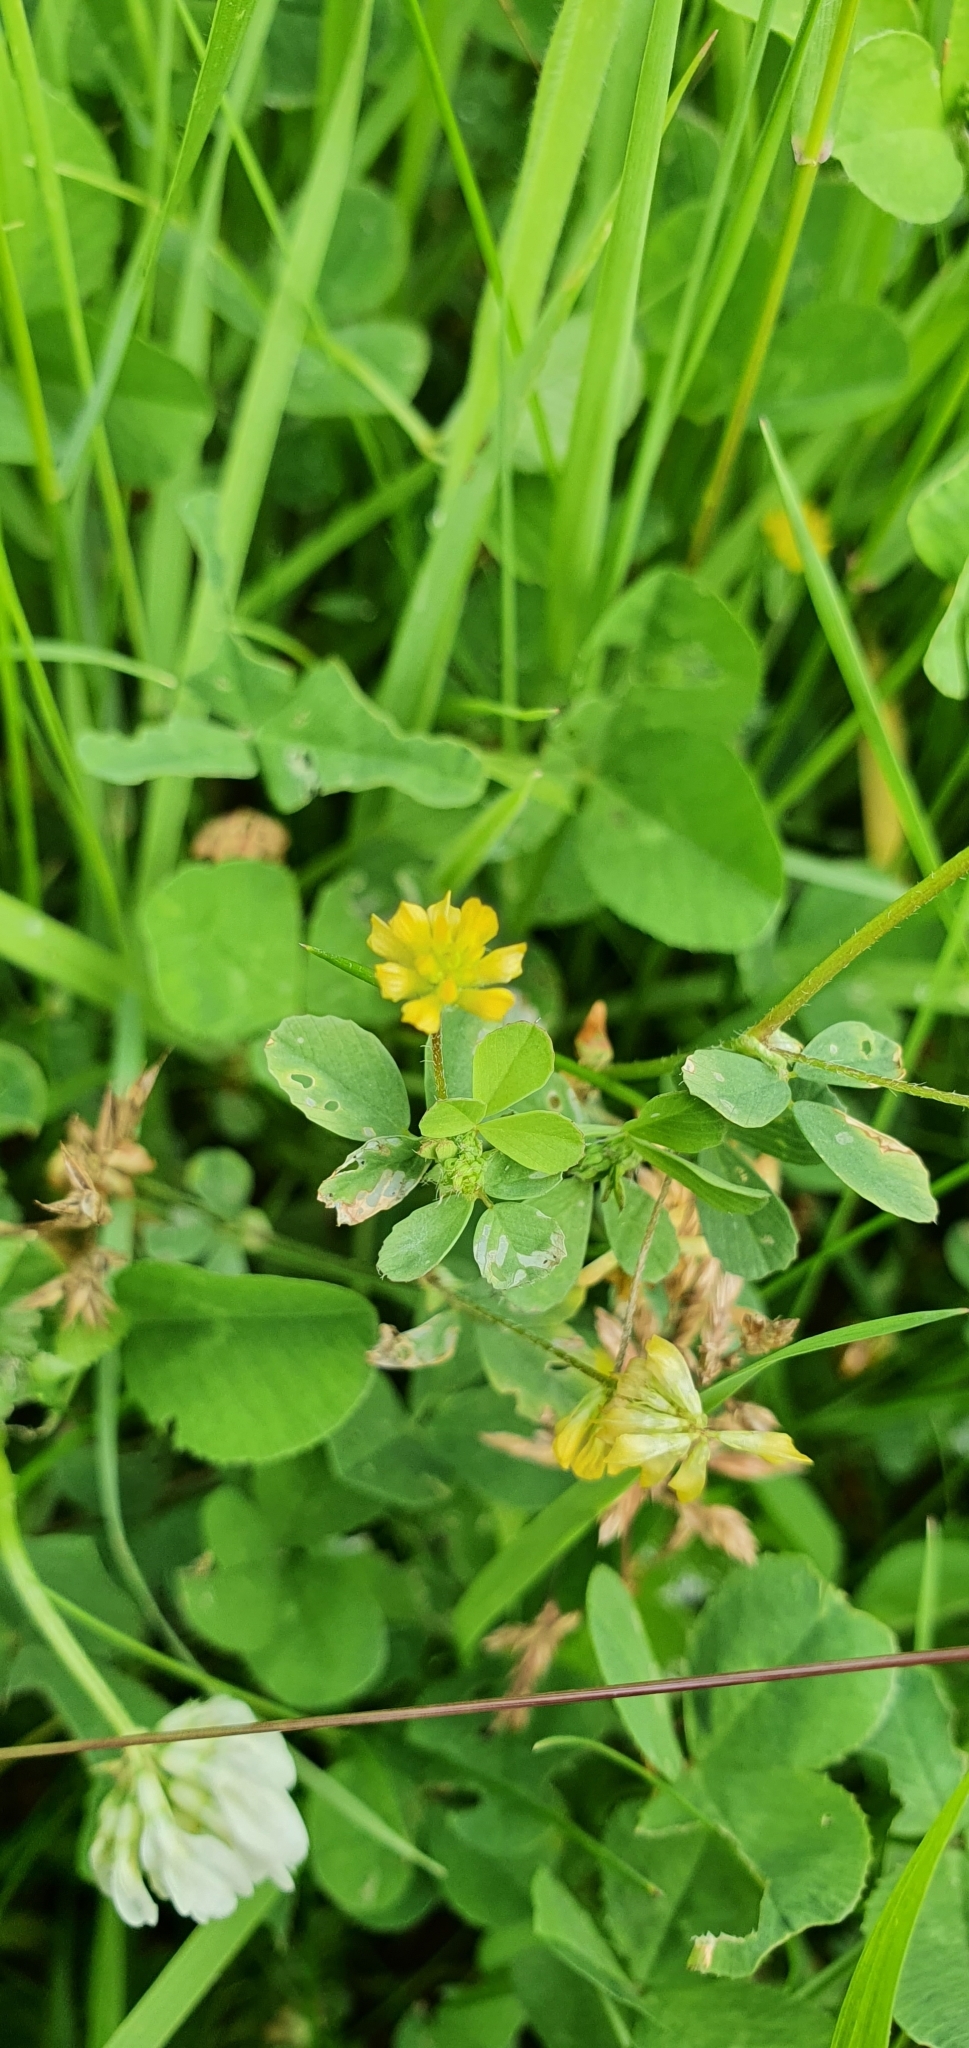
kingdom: Plantae
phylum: Tracheophyta
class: Magnoliopsida
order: Fabales
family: Fabaceae
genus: Trifolium
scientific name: Trifolium dubium
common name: Suckling clover
